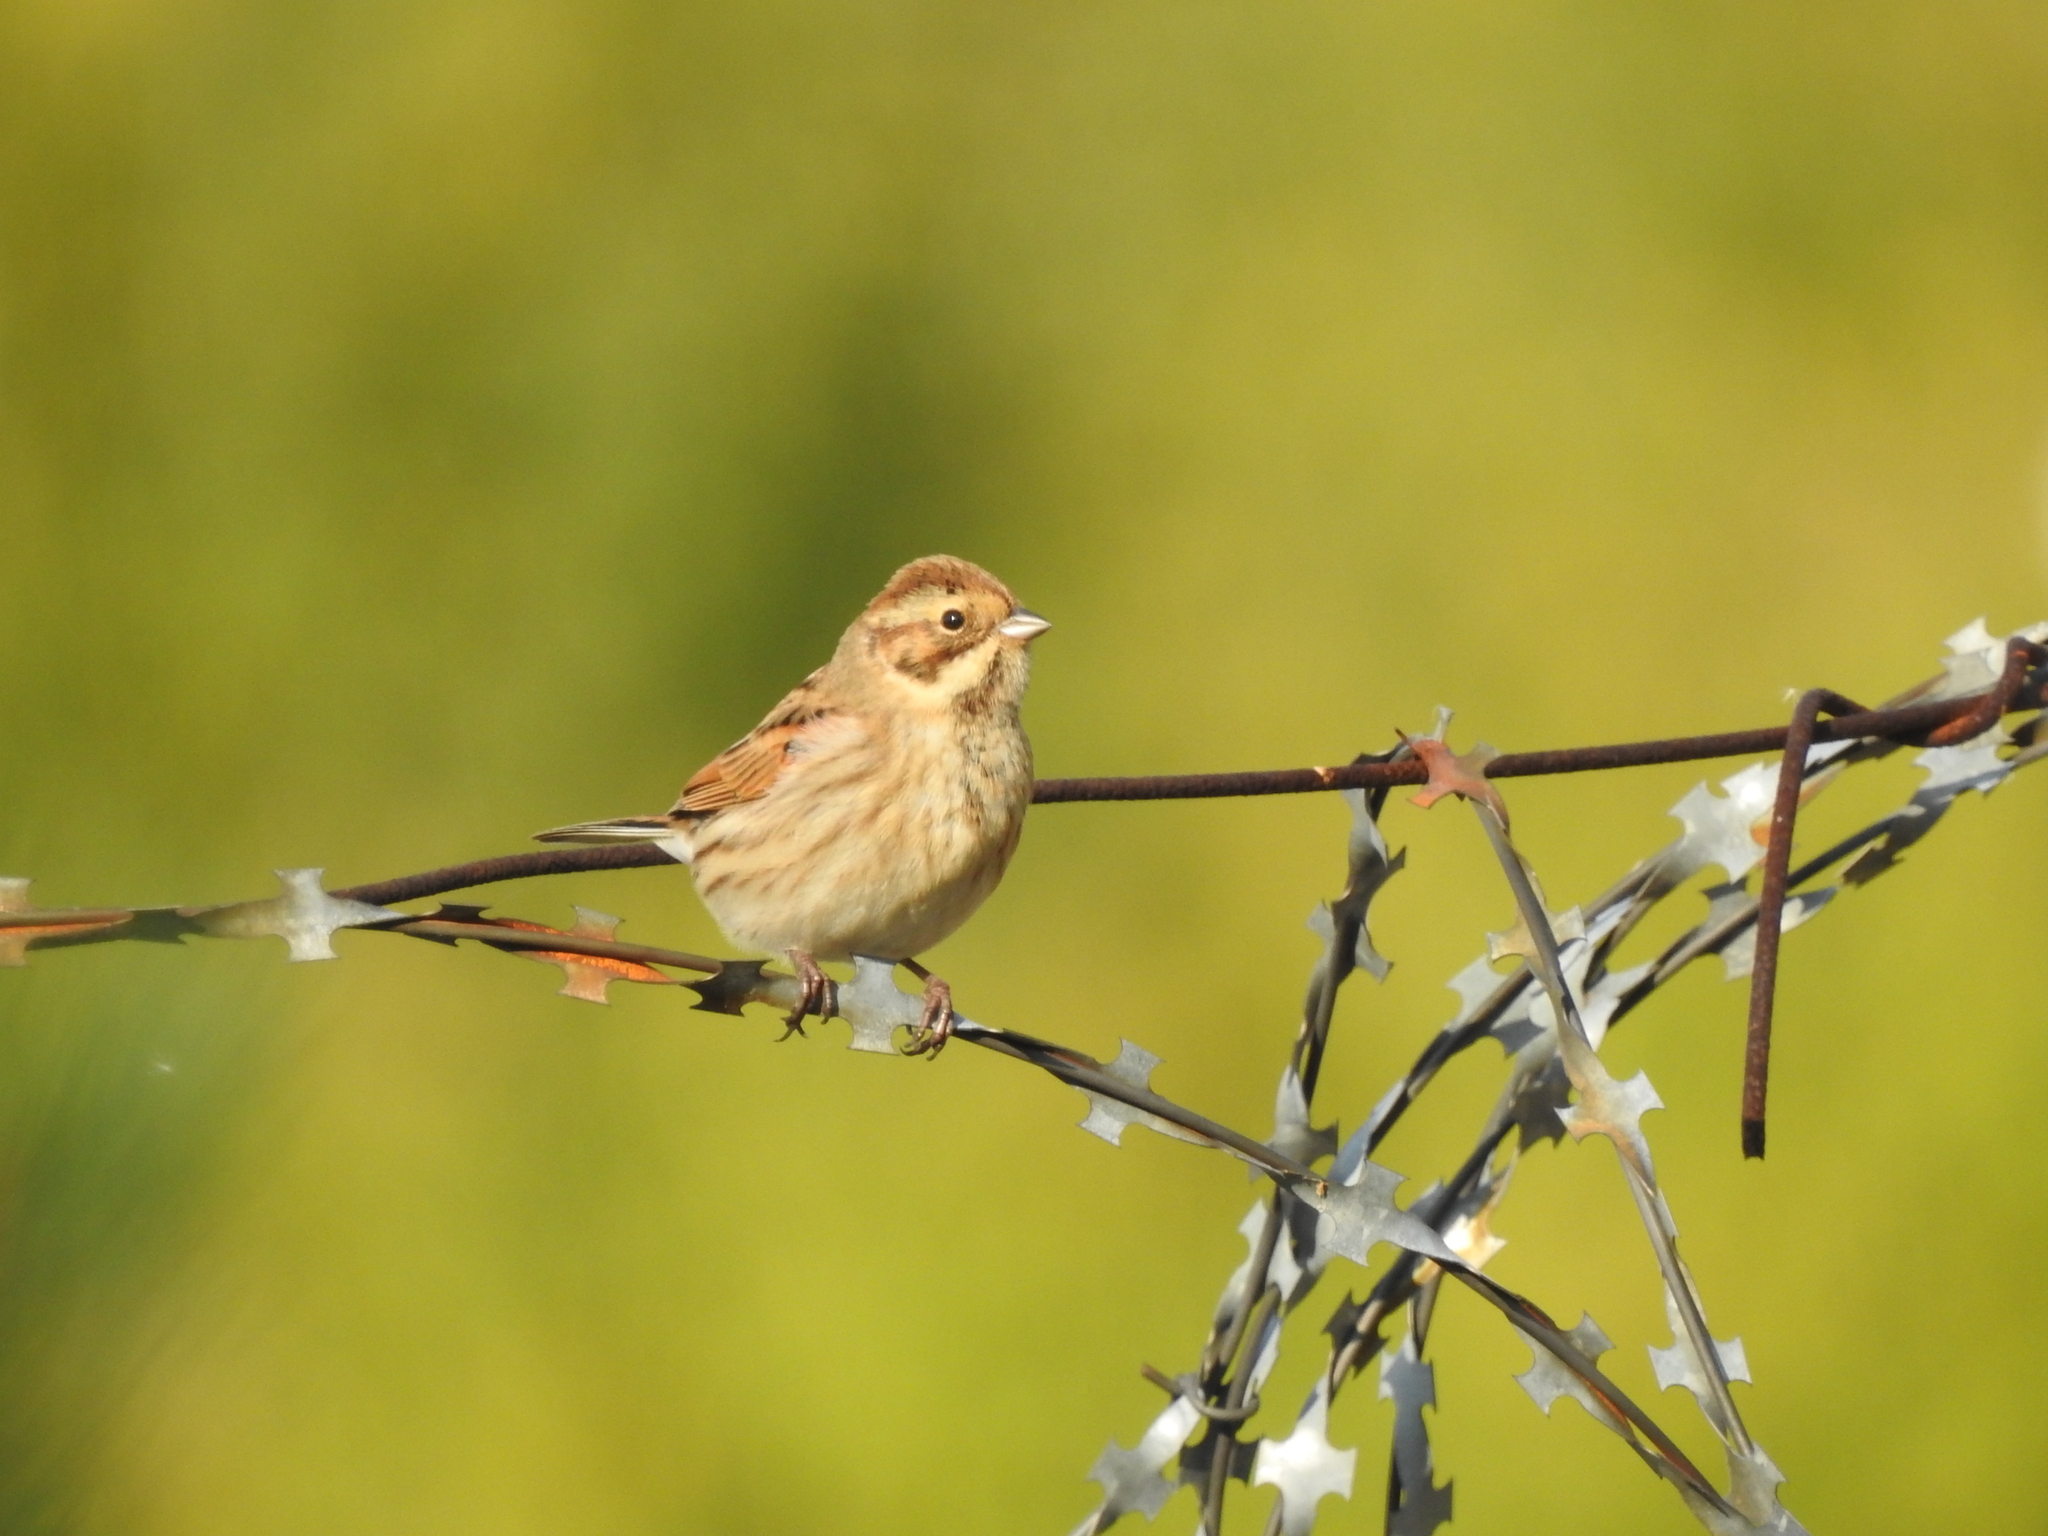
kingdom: Animalia
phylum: Chordata
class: Aves
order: Passeriformes
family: Emberizidae
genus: Emberiza
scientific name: Emberiza schoeniclus
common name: Reed bunting
